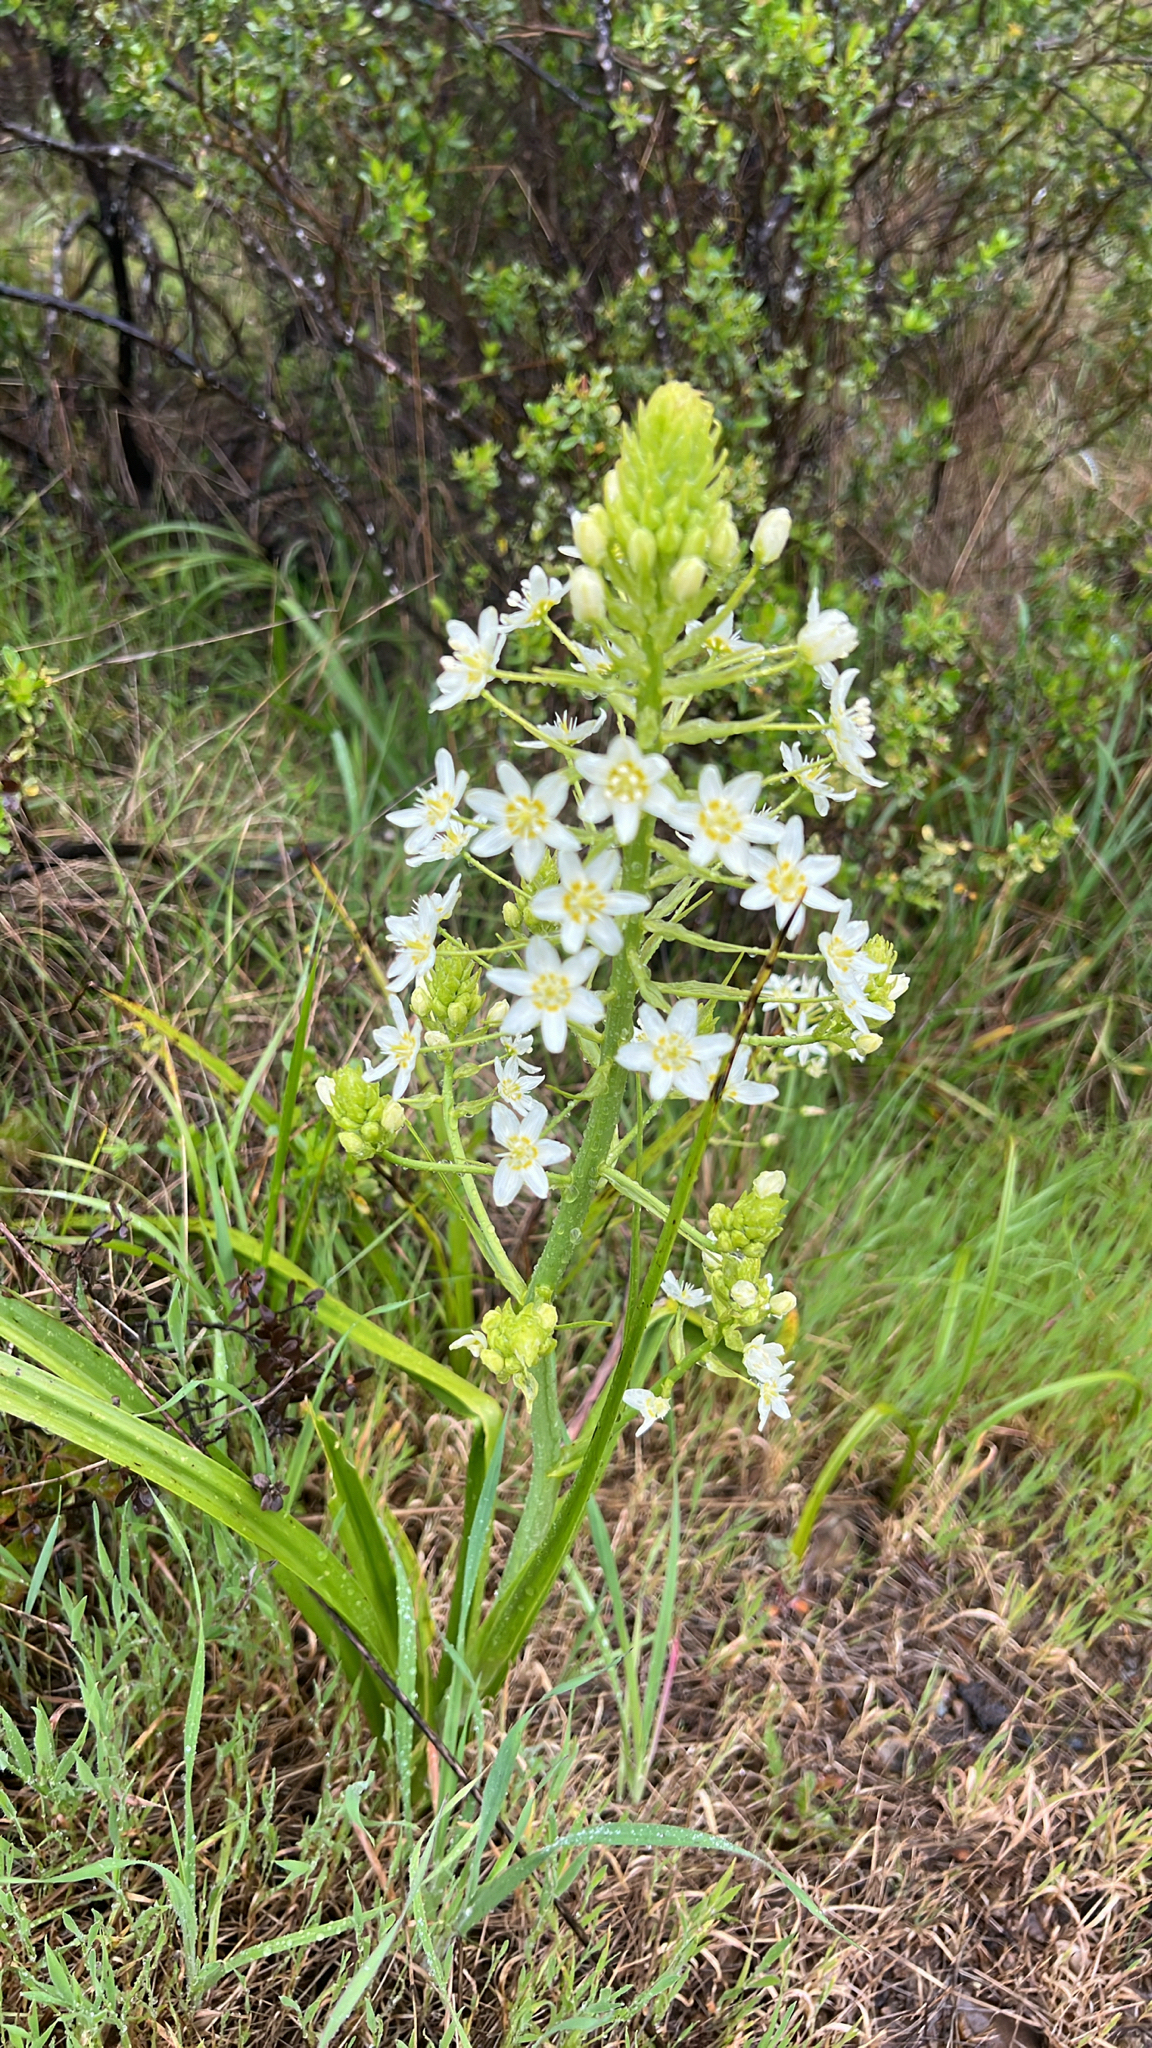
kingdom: Plantae
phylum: Tracheophyta
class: Liliopsida
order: Liliales
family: Melanthiaceae
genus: Toxicoscordion
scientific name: Toxicoscordion fremontii
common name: Fremont's death camas
